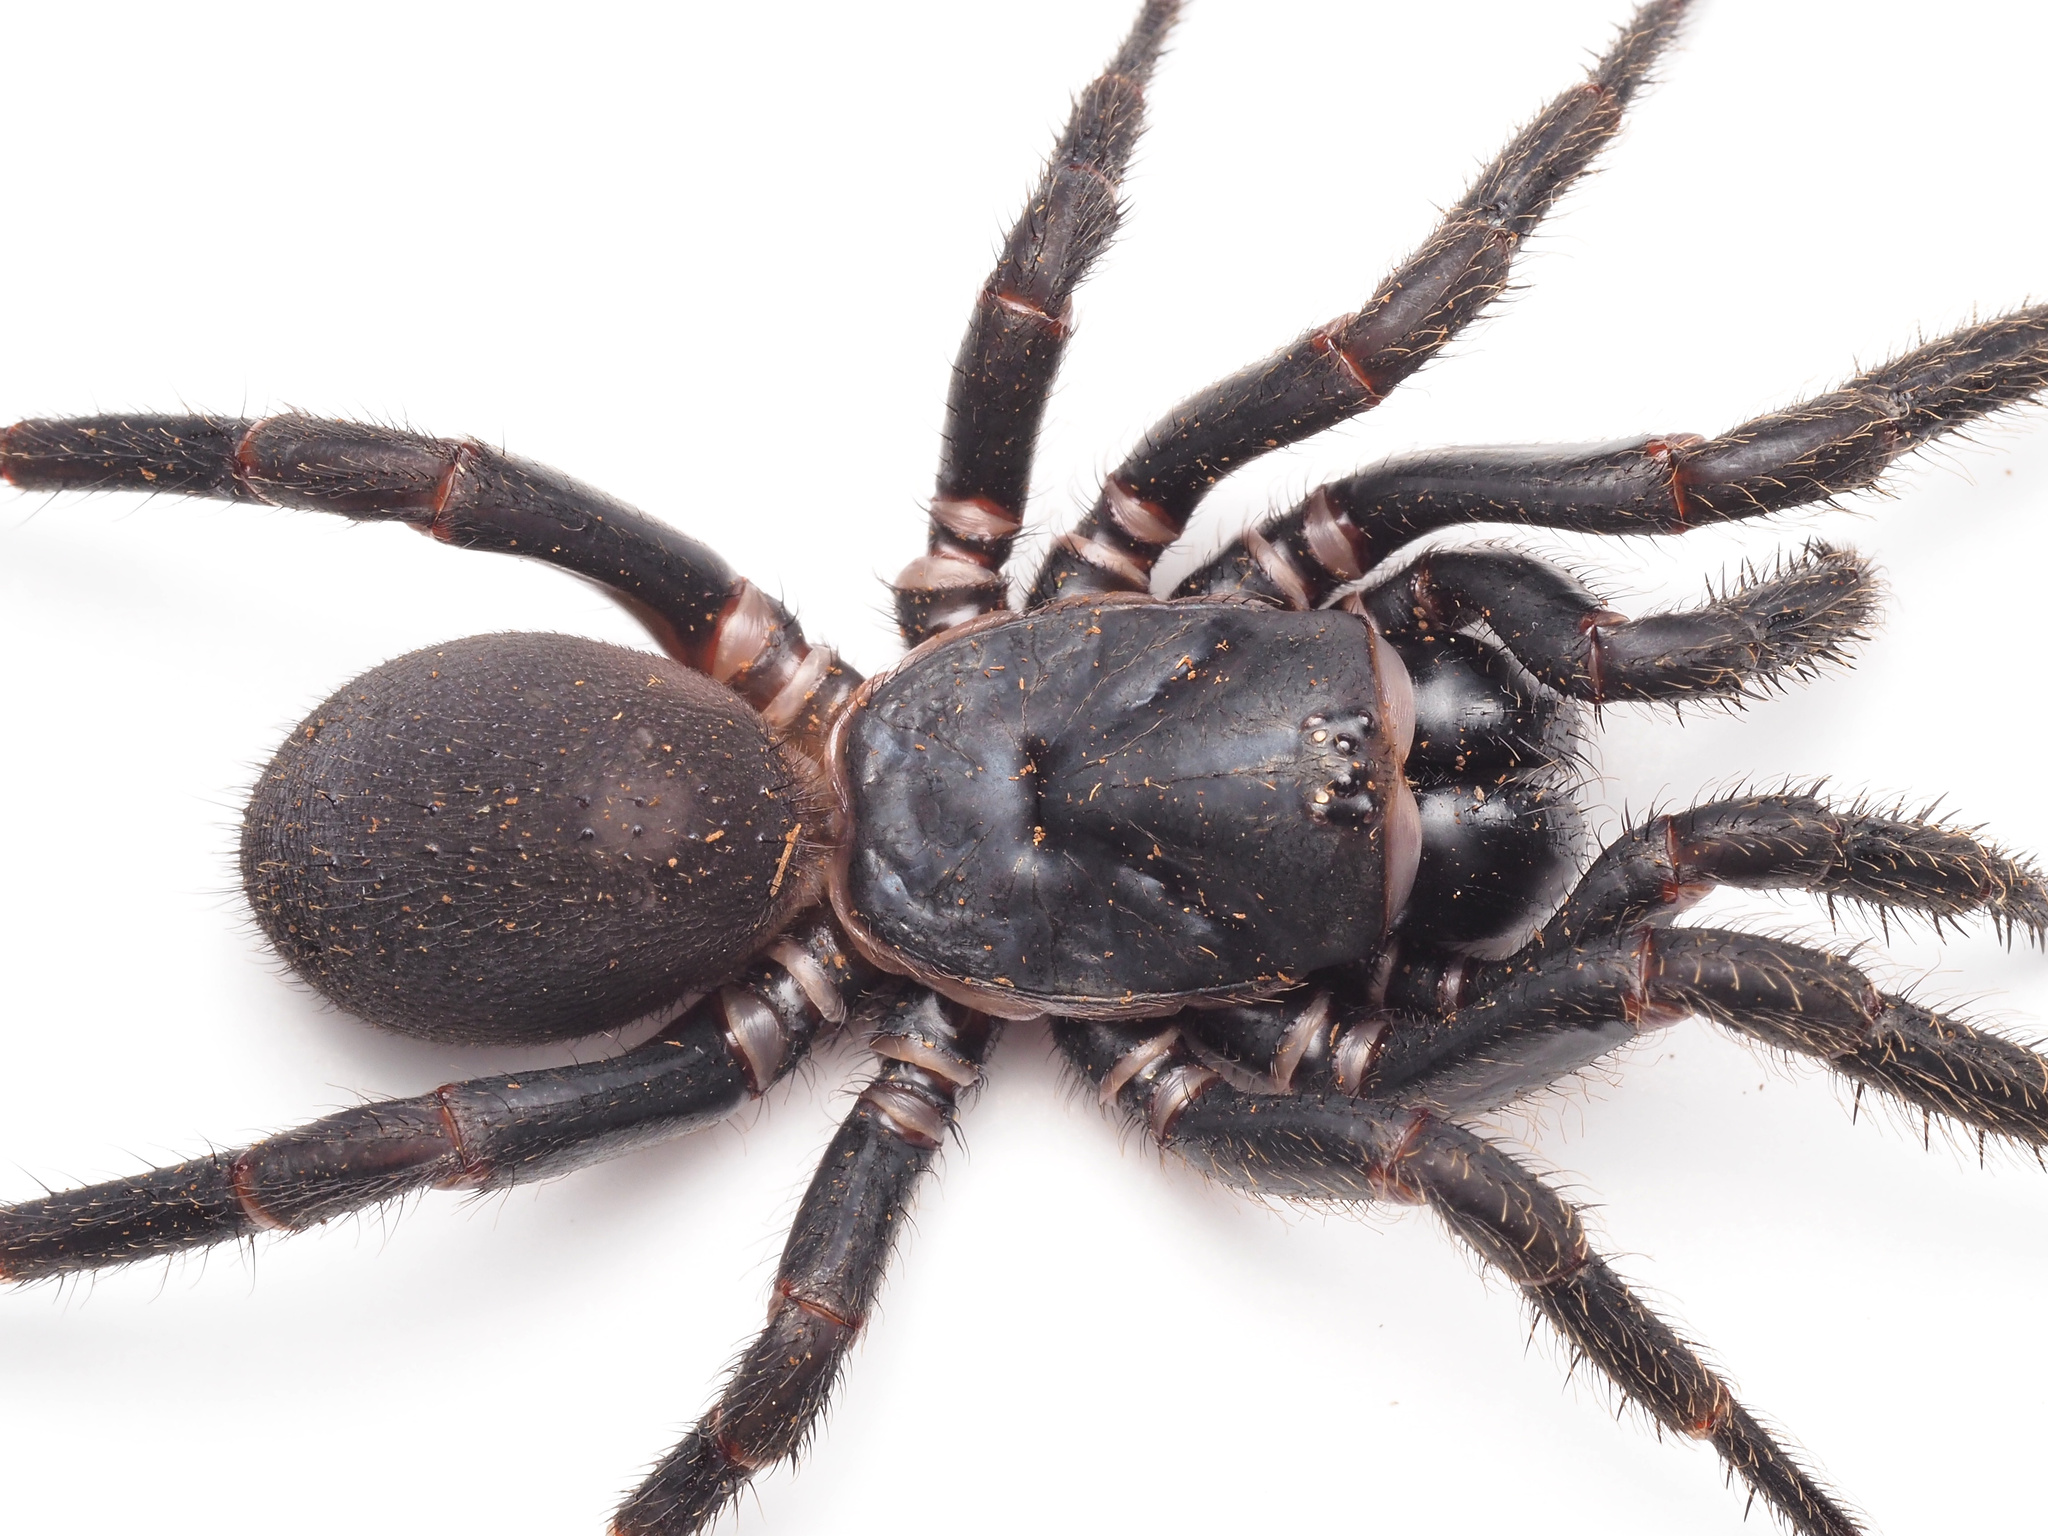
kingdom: Animalia
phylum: Arthropoda
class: Arachnida
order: Araneae
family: Idiopidae
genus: Cataxia
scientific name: Cataxia
